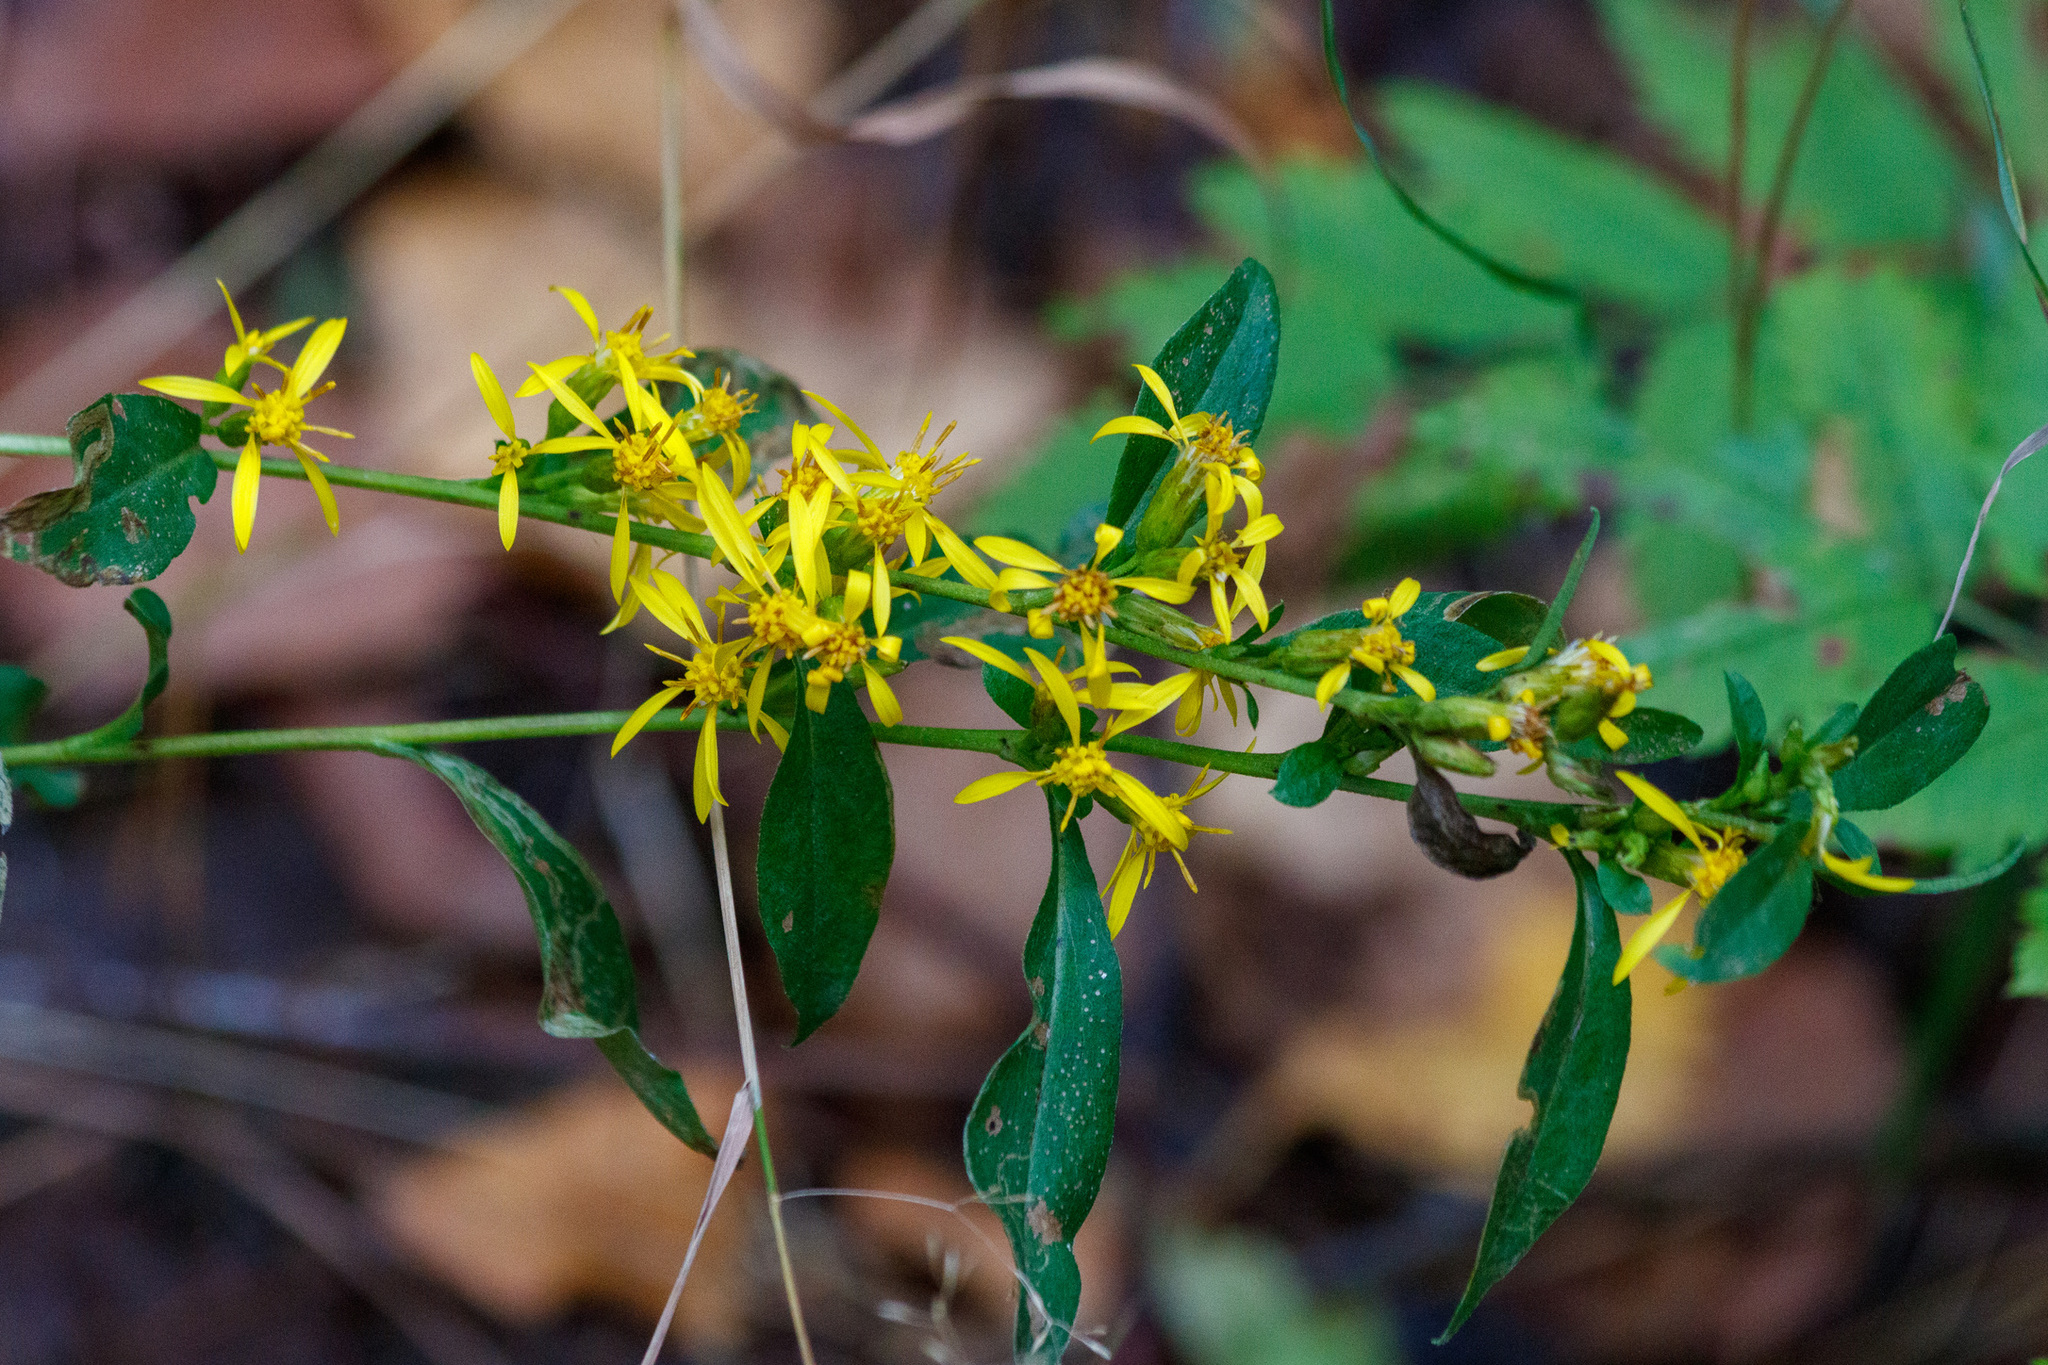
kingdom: Plantae
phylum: Tracheophyta
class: Magnoliopsida
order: Asterales
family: Asteraceae
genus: Solidago
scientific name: Solidago virgaurea
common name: Goldenrod
